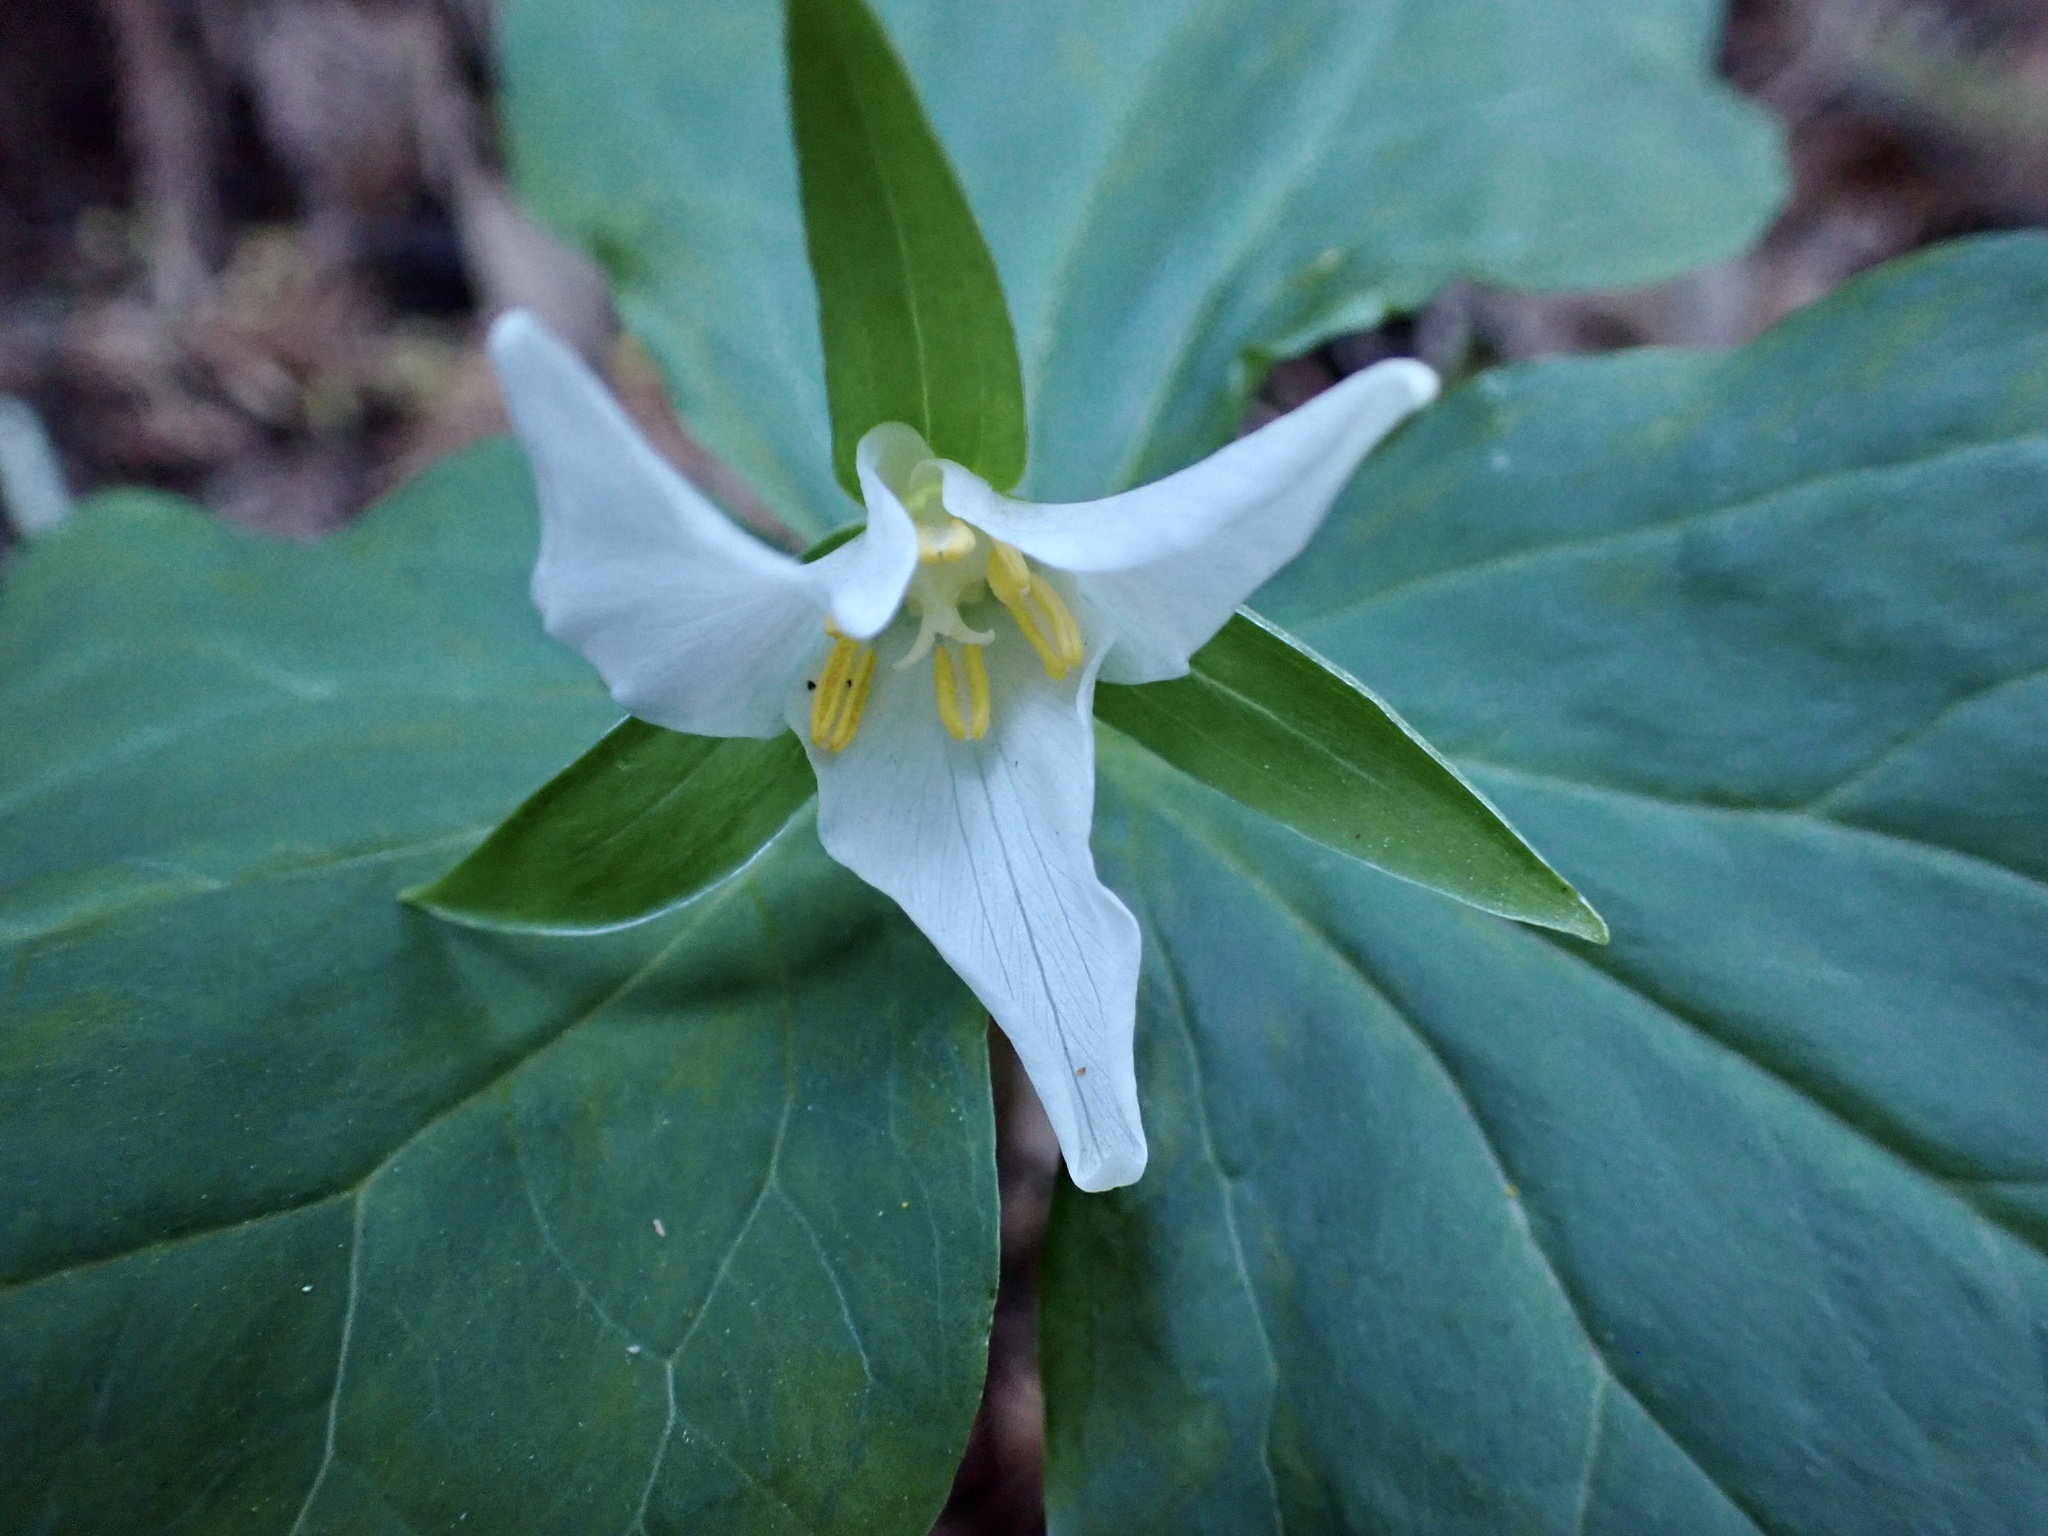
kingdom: Plantae
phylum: Tracheophyta
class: Liliopsida
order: Liliales
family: Melanthiaceae
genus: Trillium
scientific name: Trillium ovatum
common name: Pacific trillium
